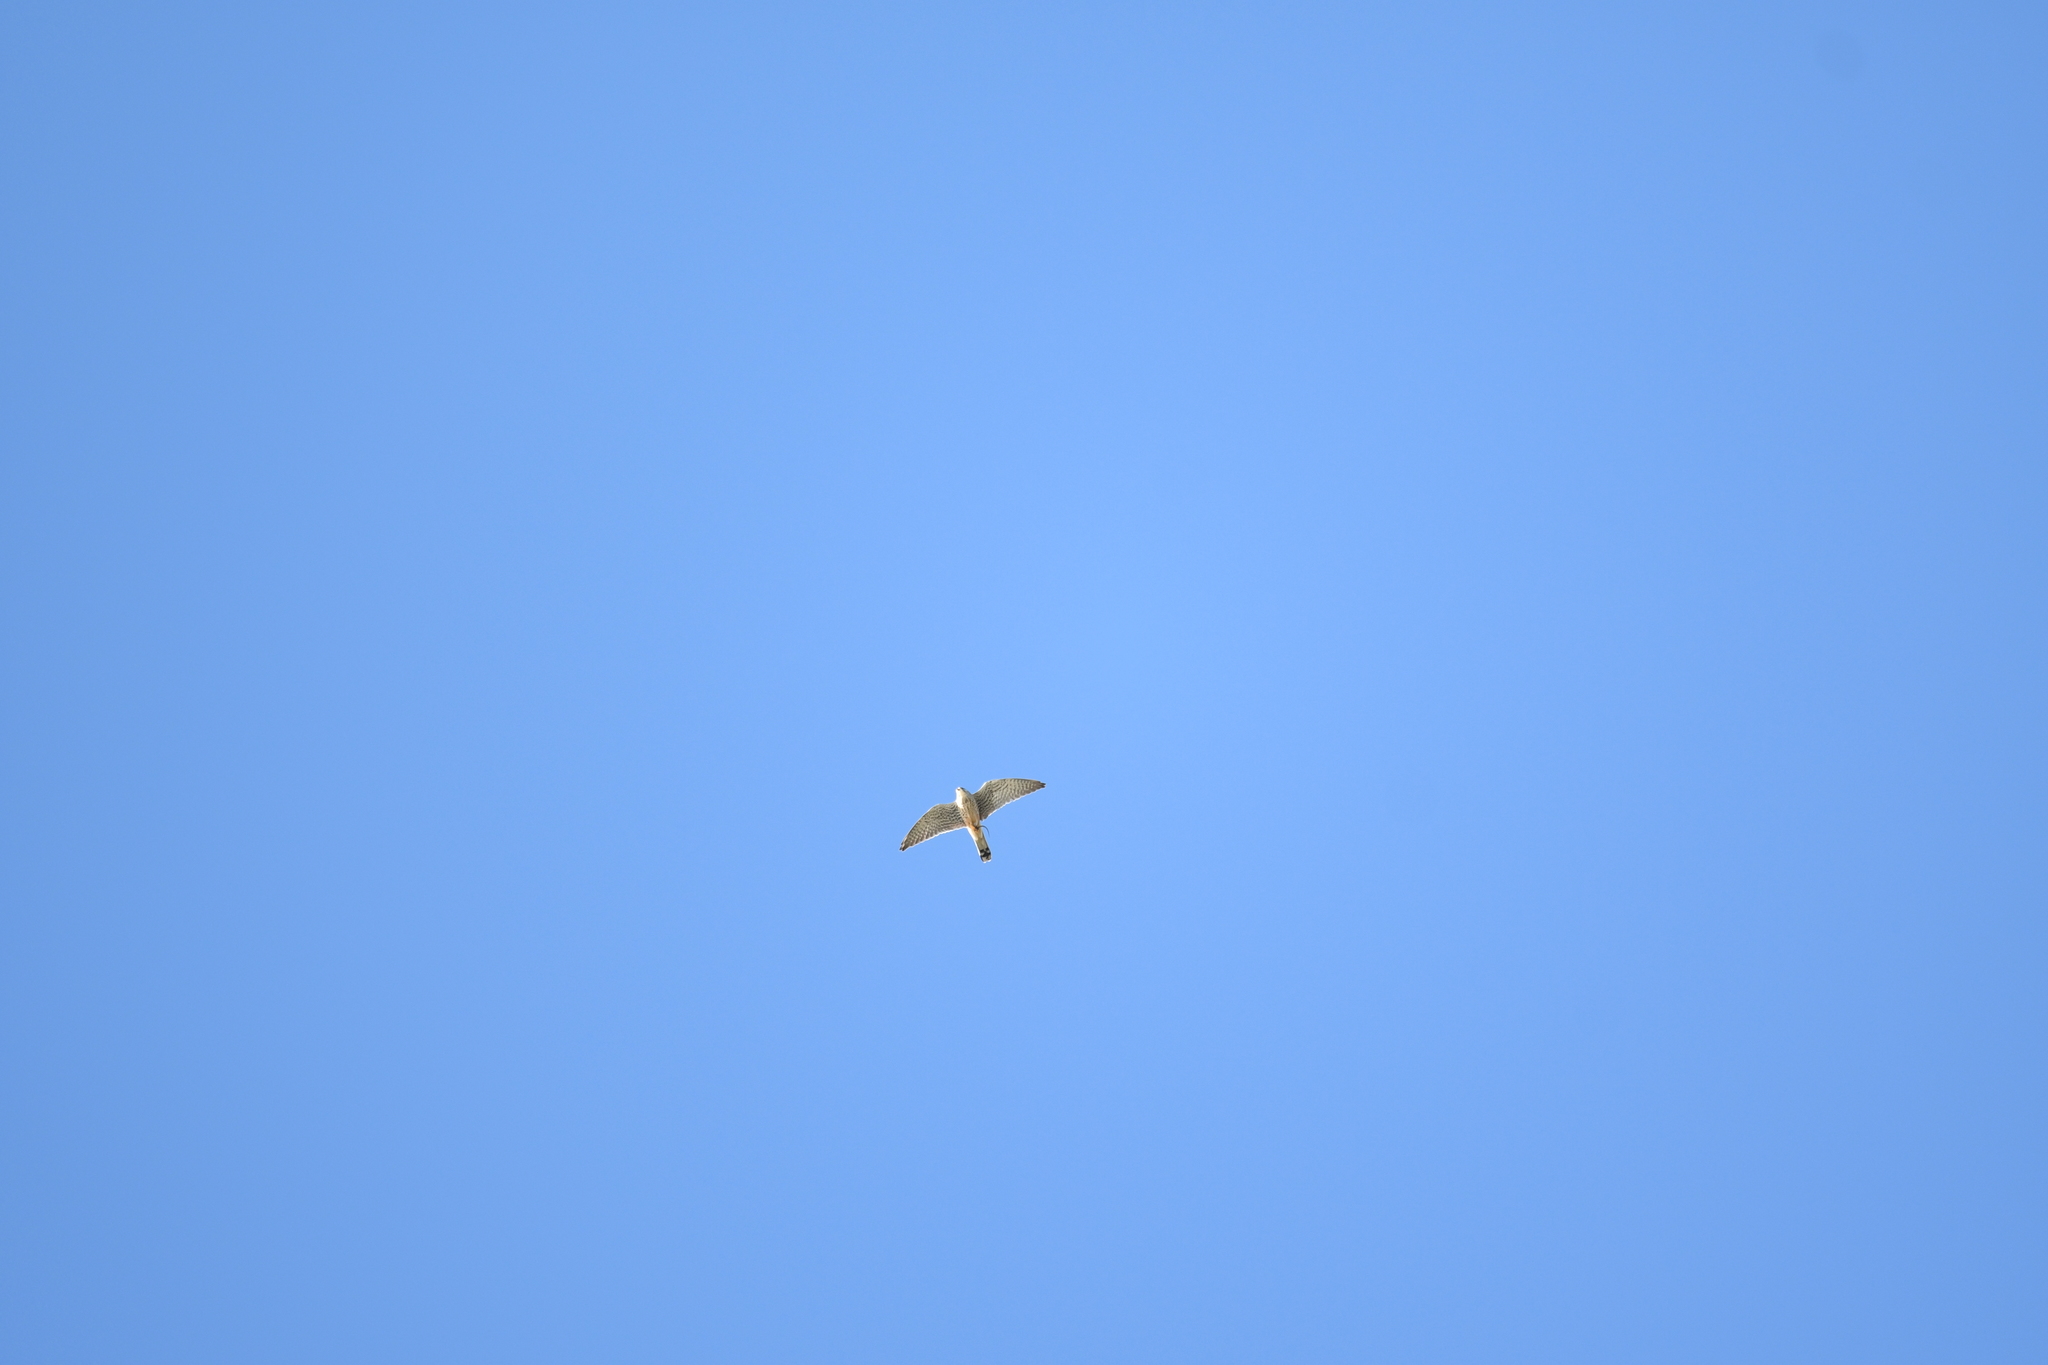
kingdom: Animalia
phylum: Chordata
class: Aves
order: Falconiformes
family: Falconidae
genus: Falco
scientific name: Falco tinnunculus
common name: Common kestrel
